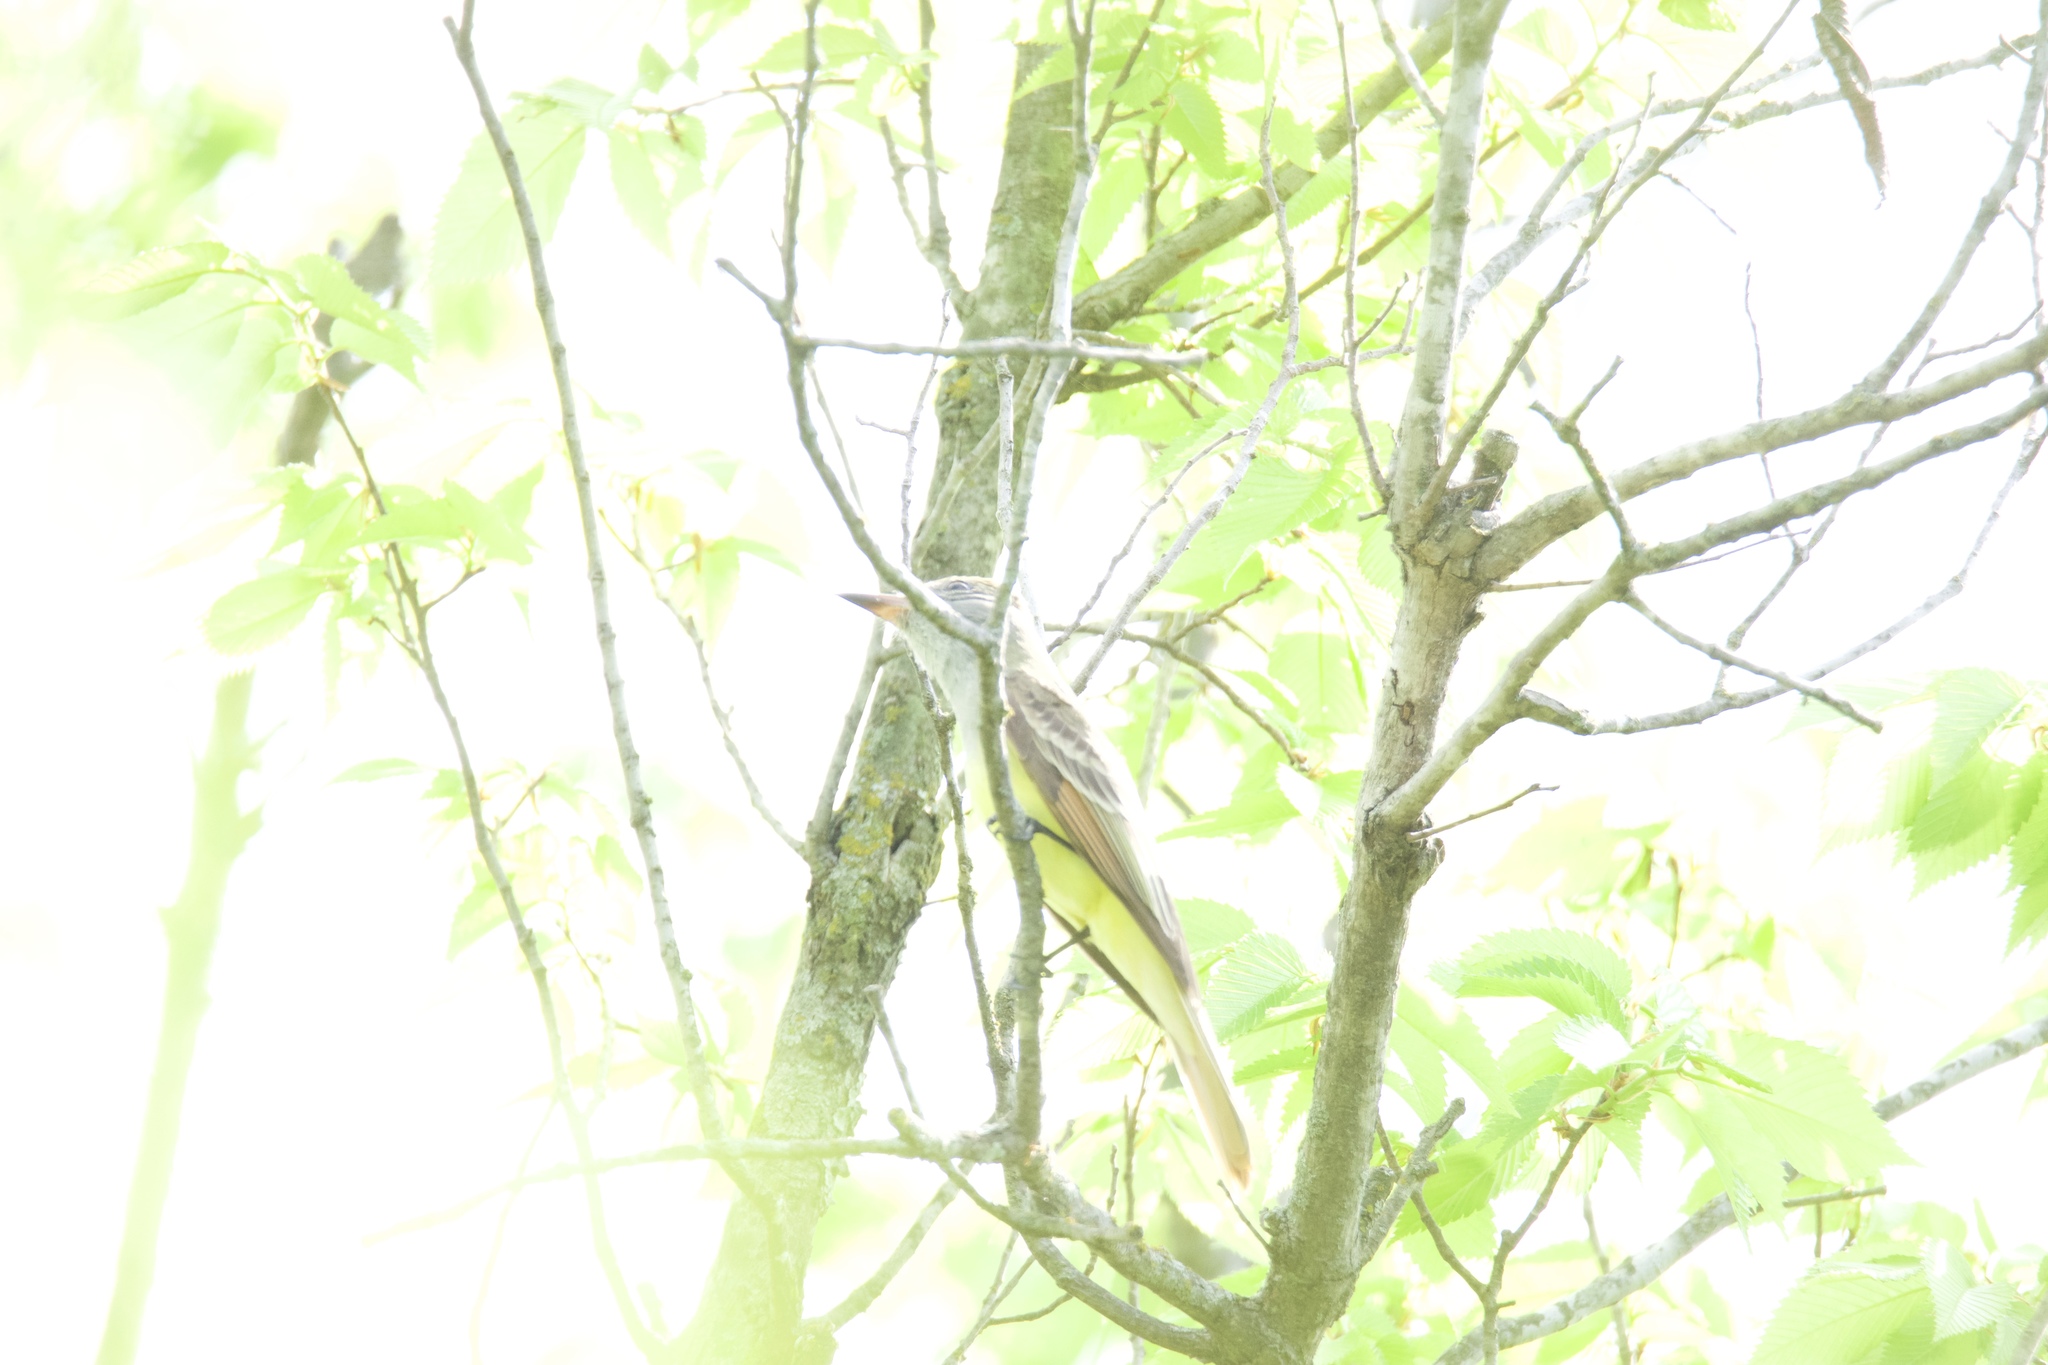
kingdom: Animalia
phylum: Chordata
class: Aves
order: Passeriformes
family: Tyrannidae
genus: Myiarchus
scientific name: Myiarchus crinitus
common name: Great crested flycatcher
